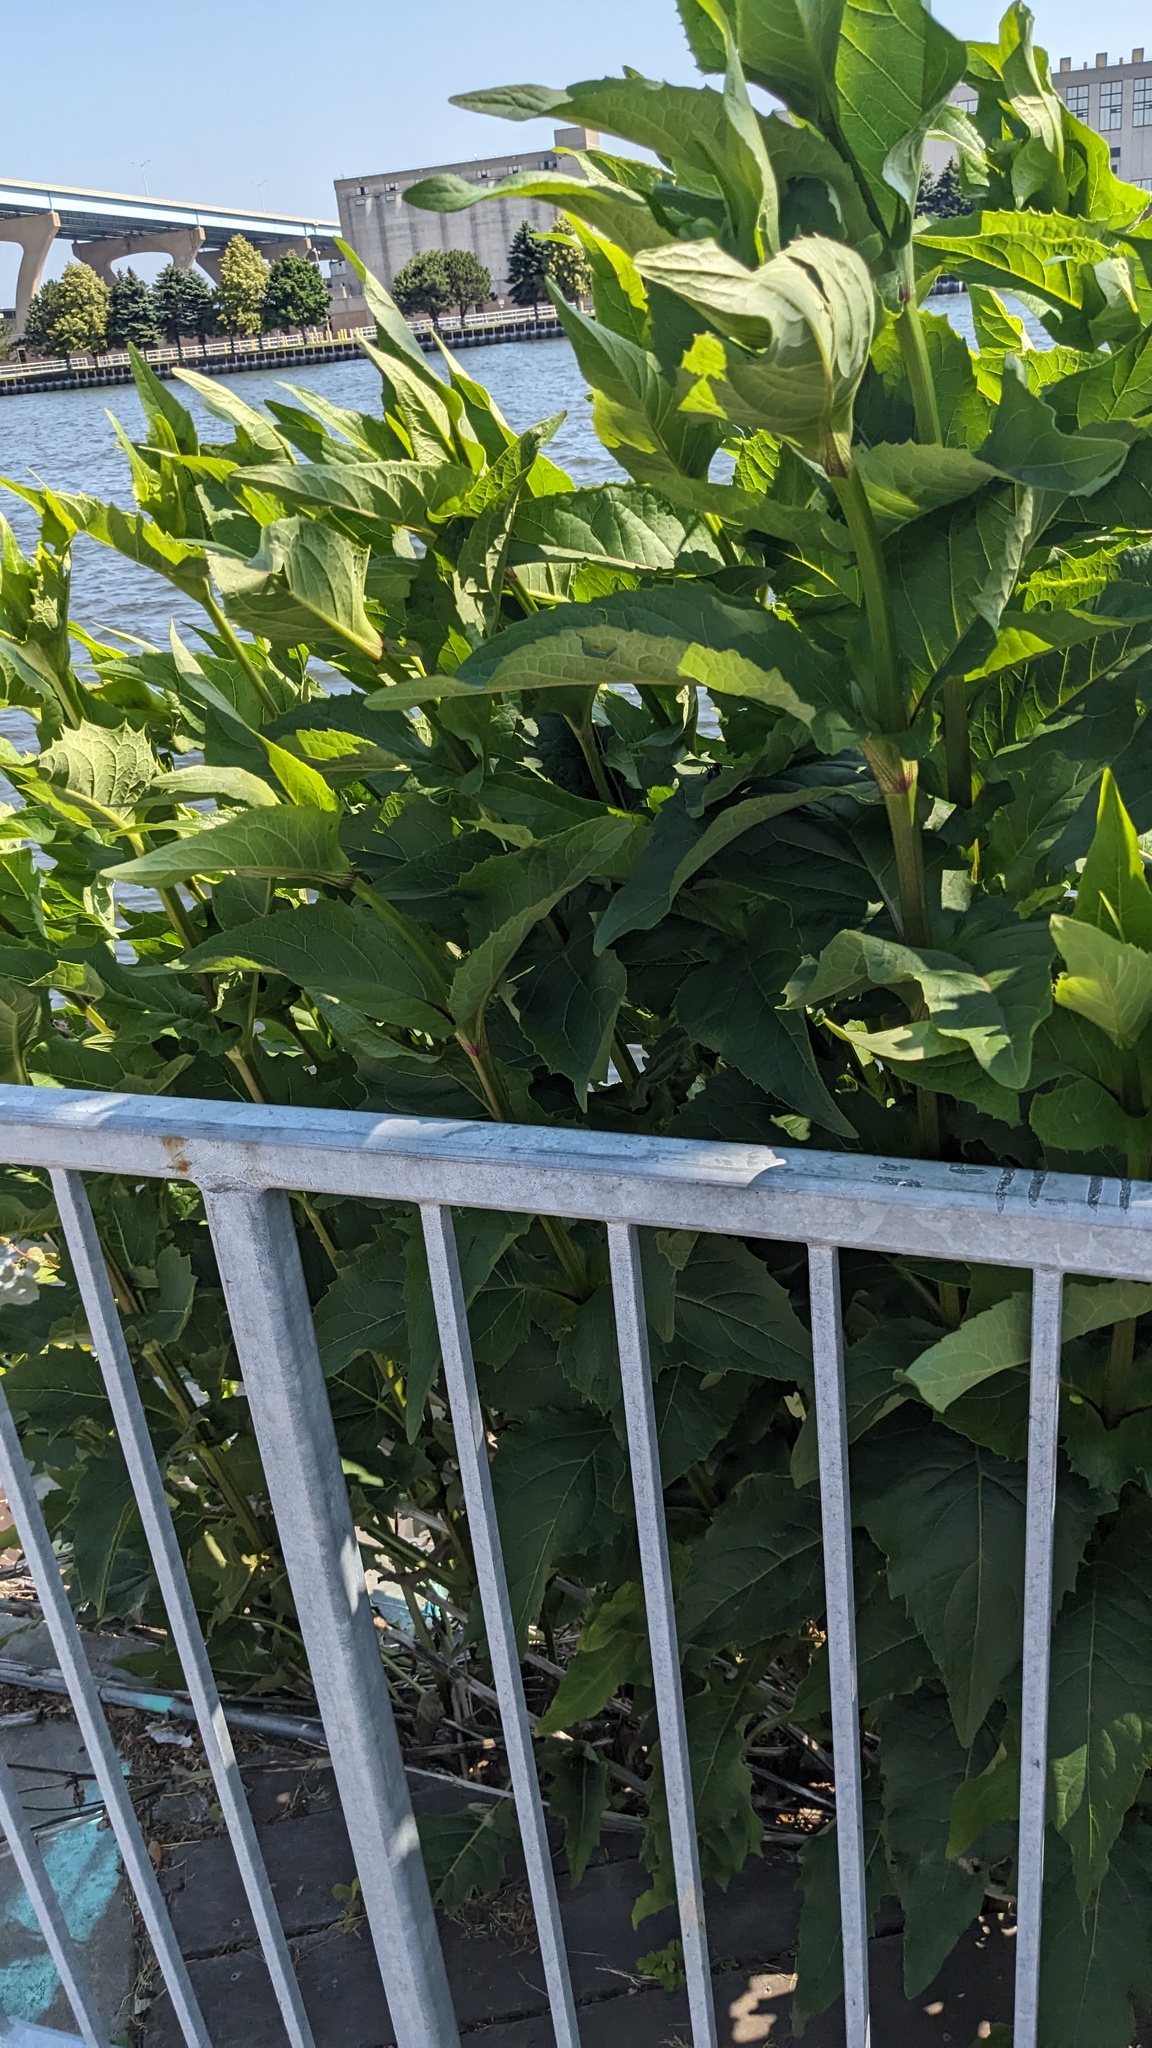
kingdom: Plantae
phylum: Tracheophyta
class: Magnoliopsida
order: Asterales
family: Asteraceae
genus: Silphium
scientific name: Silphium perfoliatum
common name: Cup-plant
